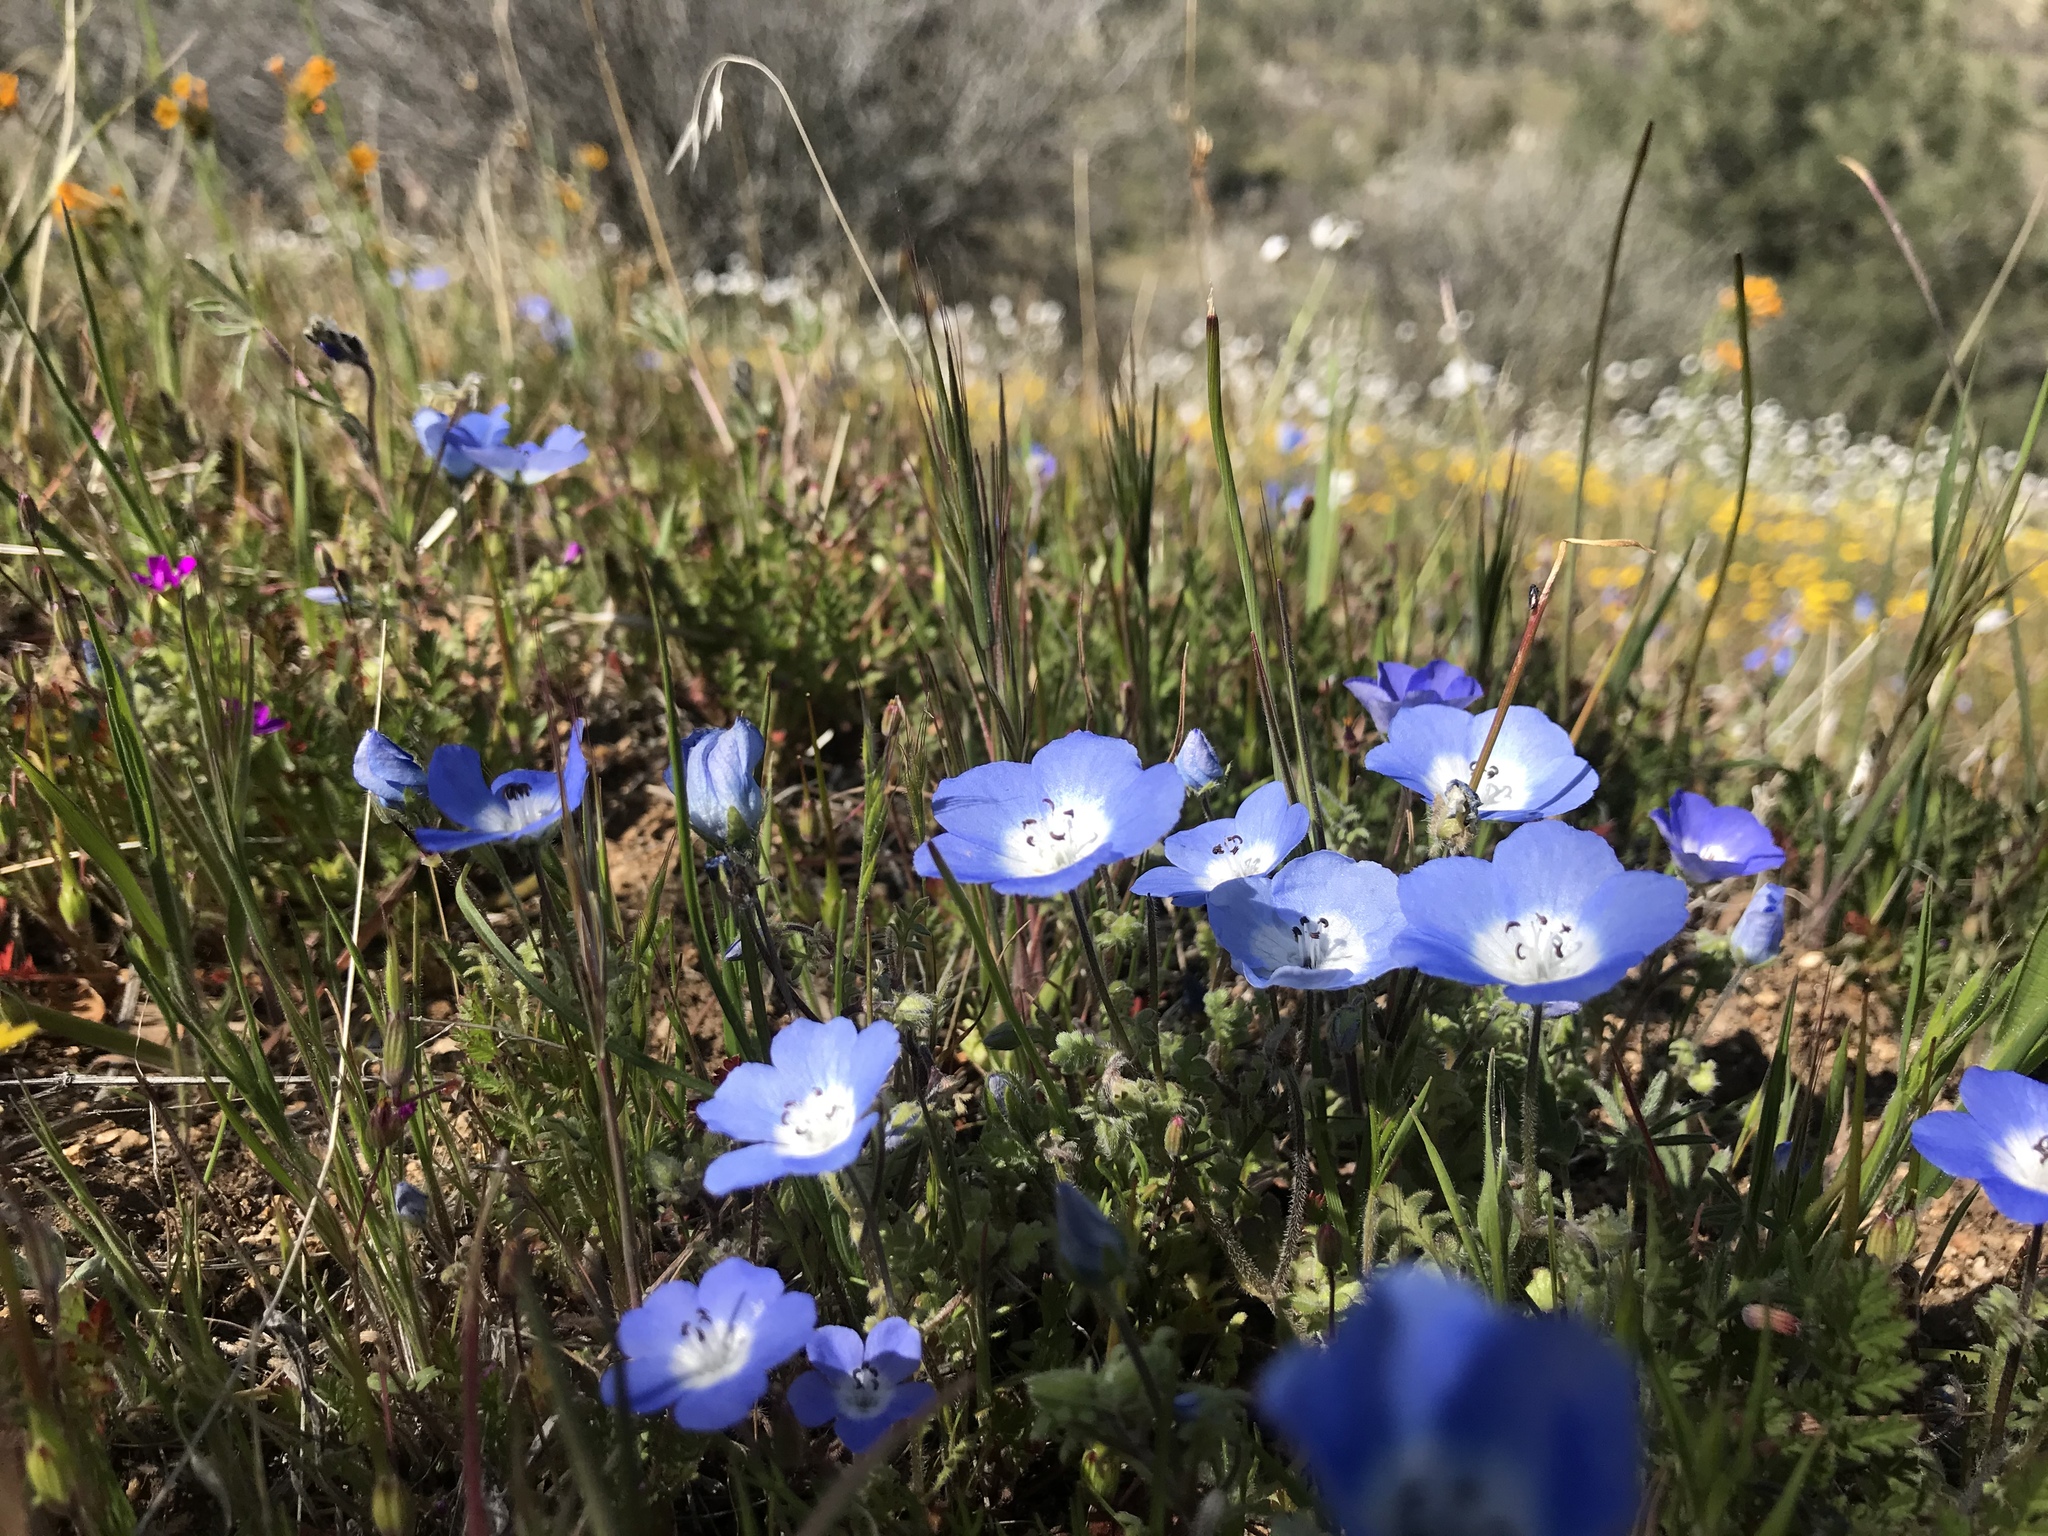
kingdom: Plantae
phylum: Tracheophyta
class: Magnoliopsida
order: Boraginales
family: Hydrophyllaceae
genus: Nemophila
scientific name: Nemophila menziesii
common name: Baby's-blue-eyes
